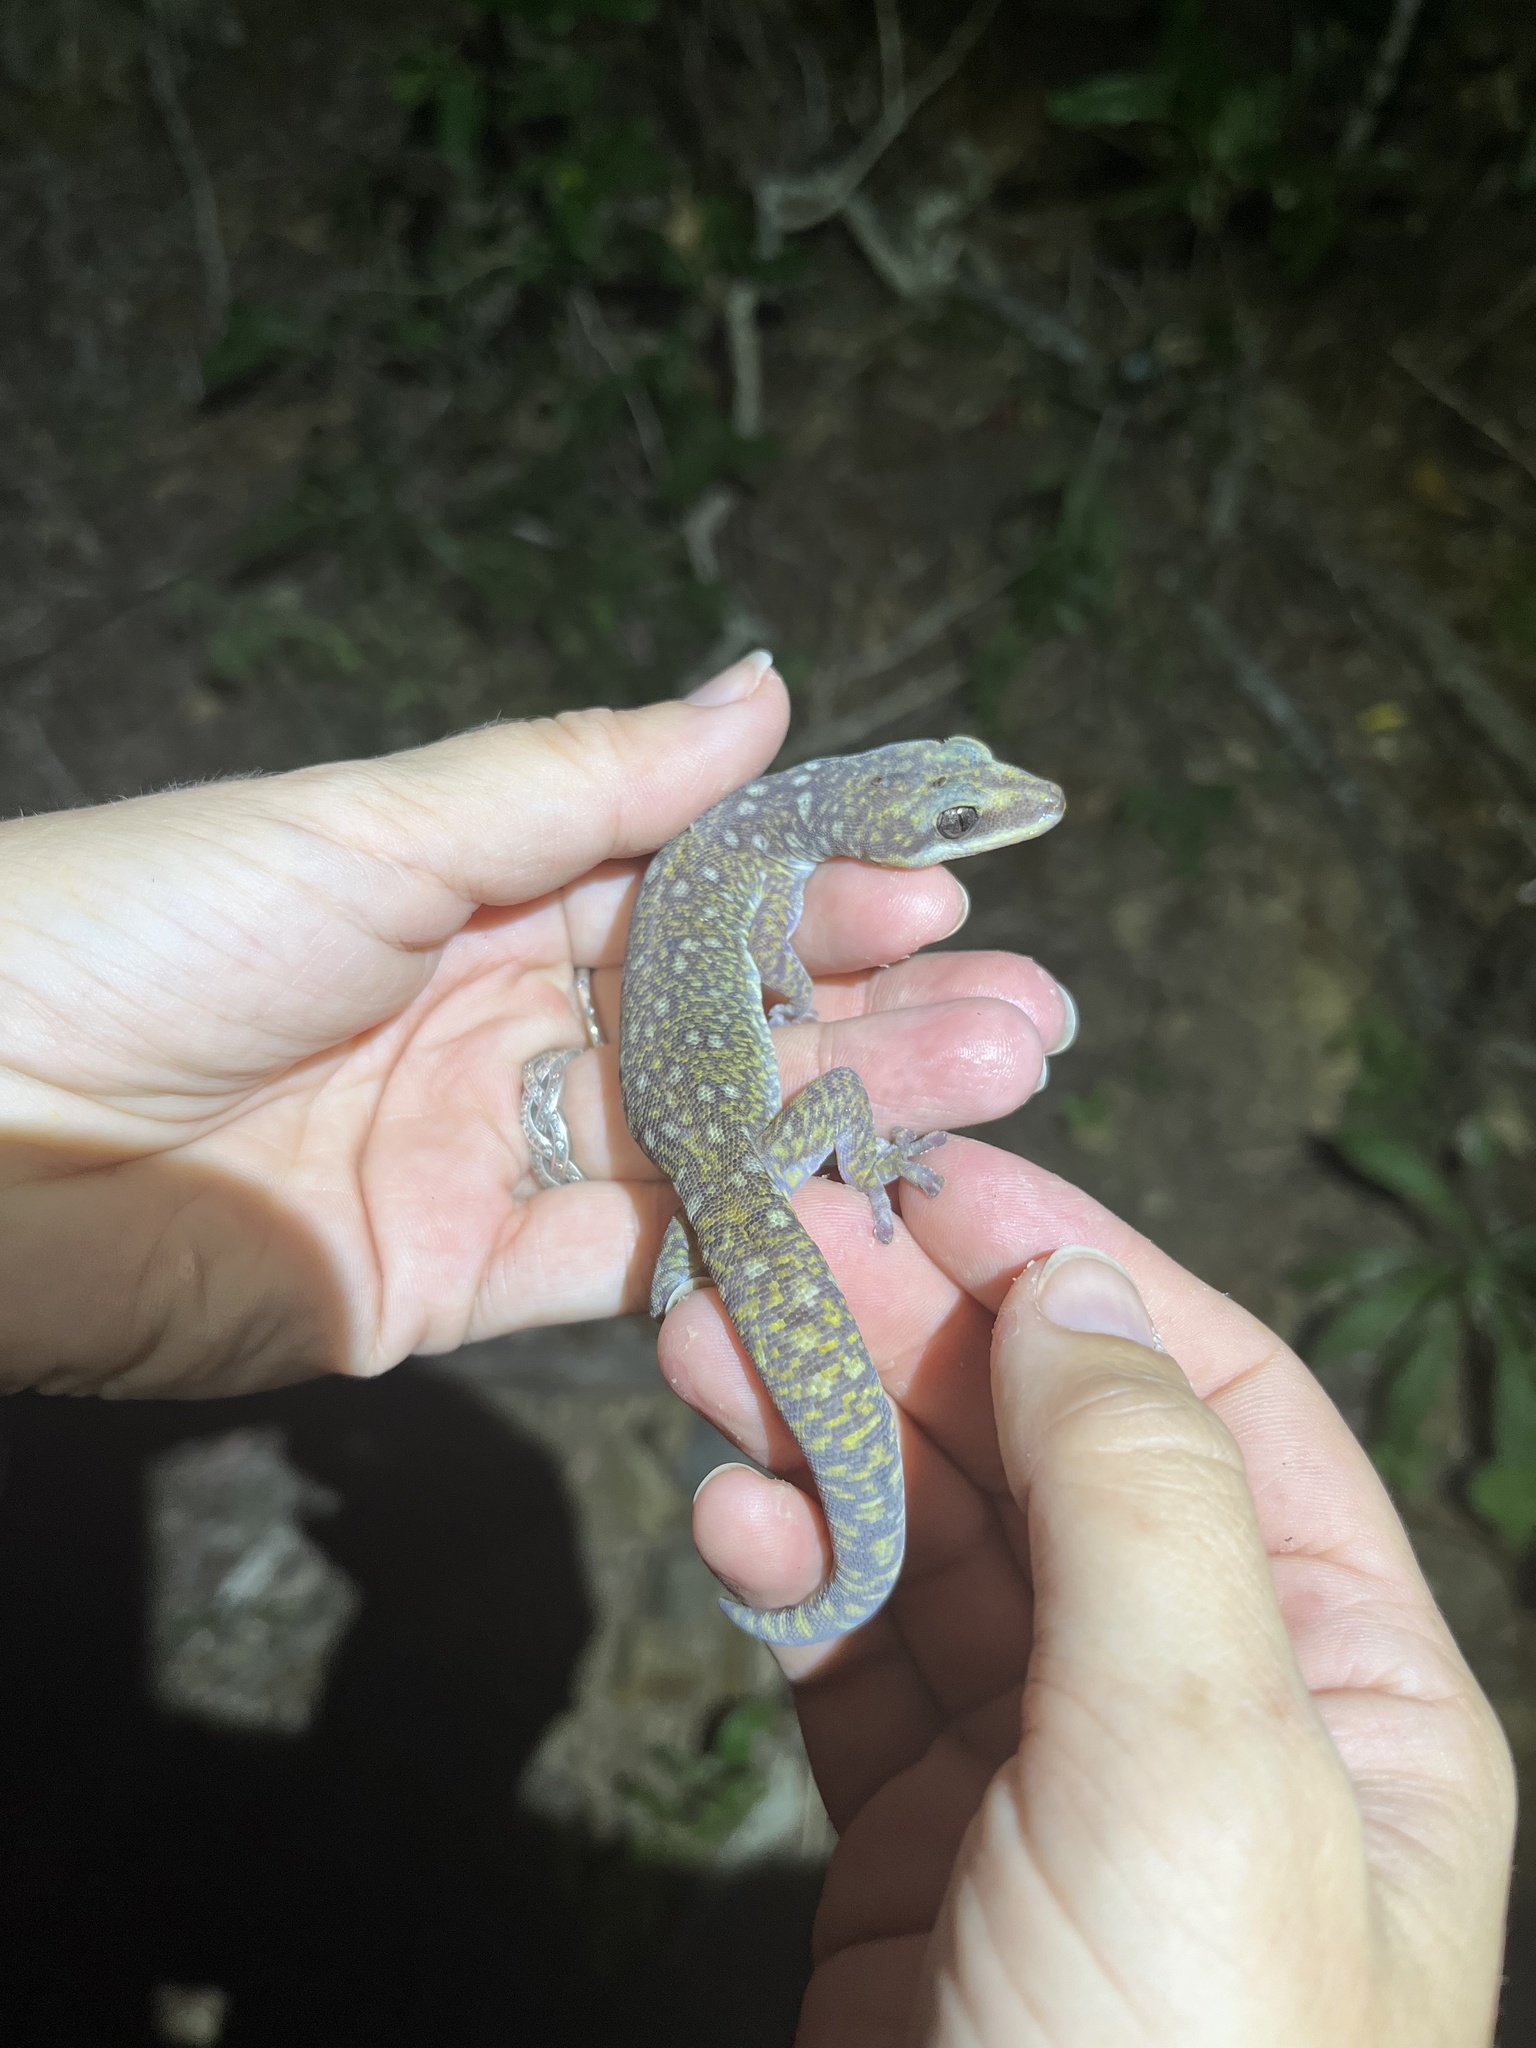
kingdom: Animalia
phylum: Chordata
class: Squamata
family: Diplodactylidae
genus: Oedura
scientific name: Oedura tryoni
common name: Southern spotted velvet gecko
